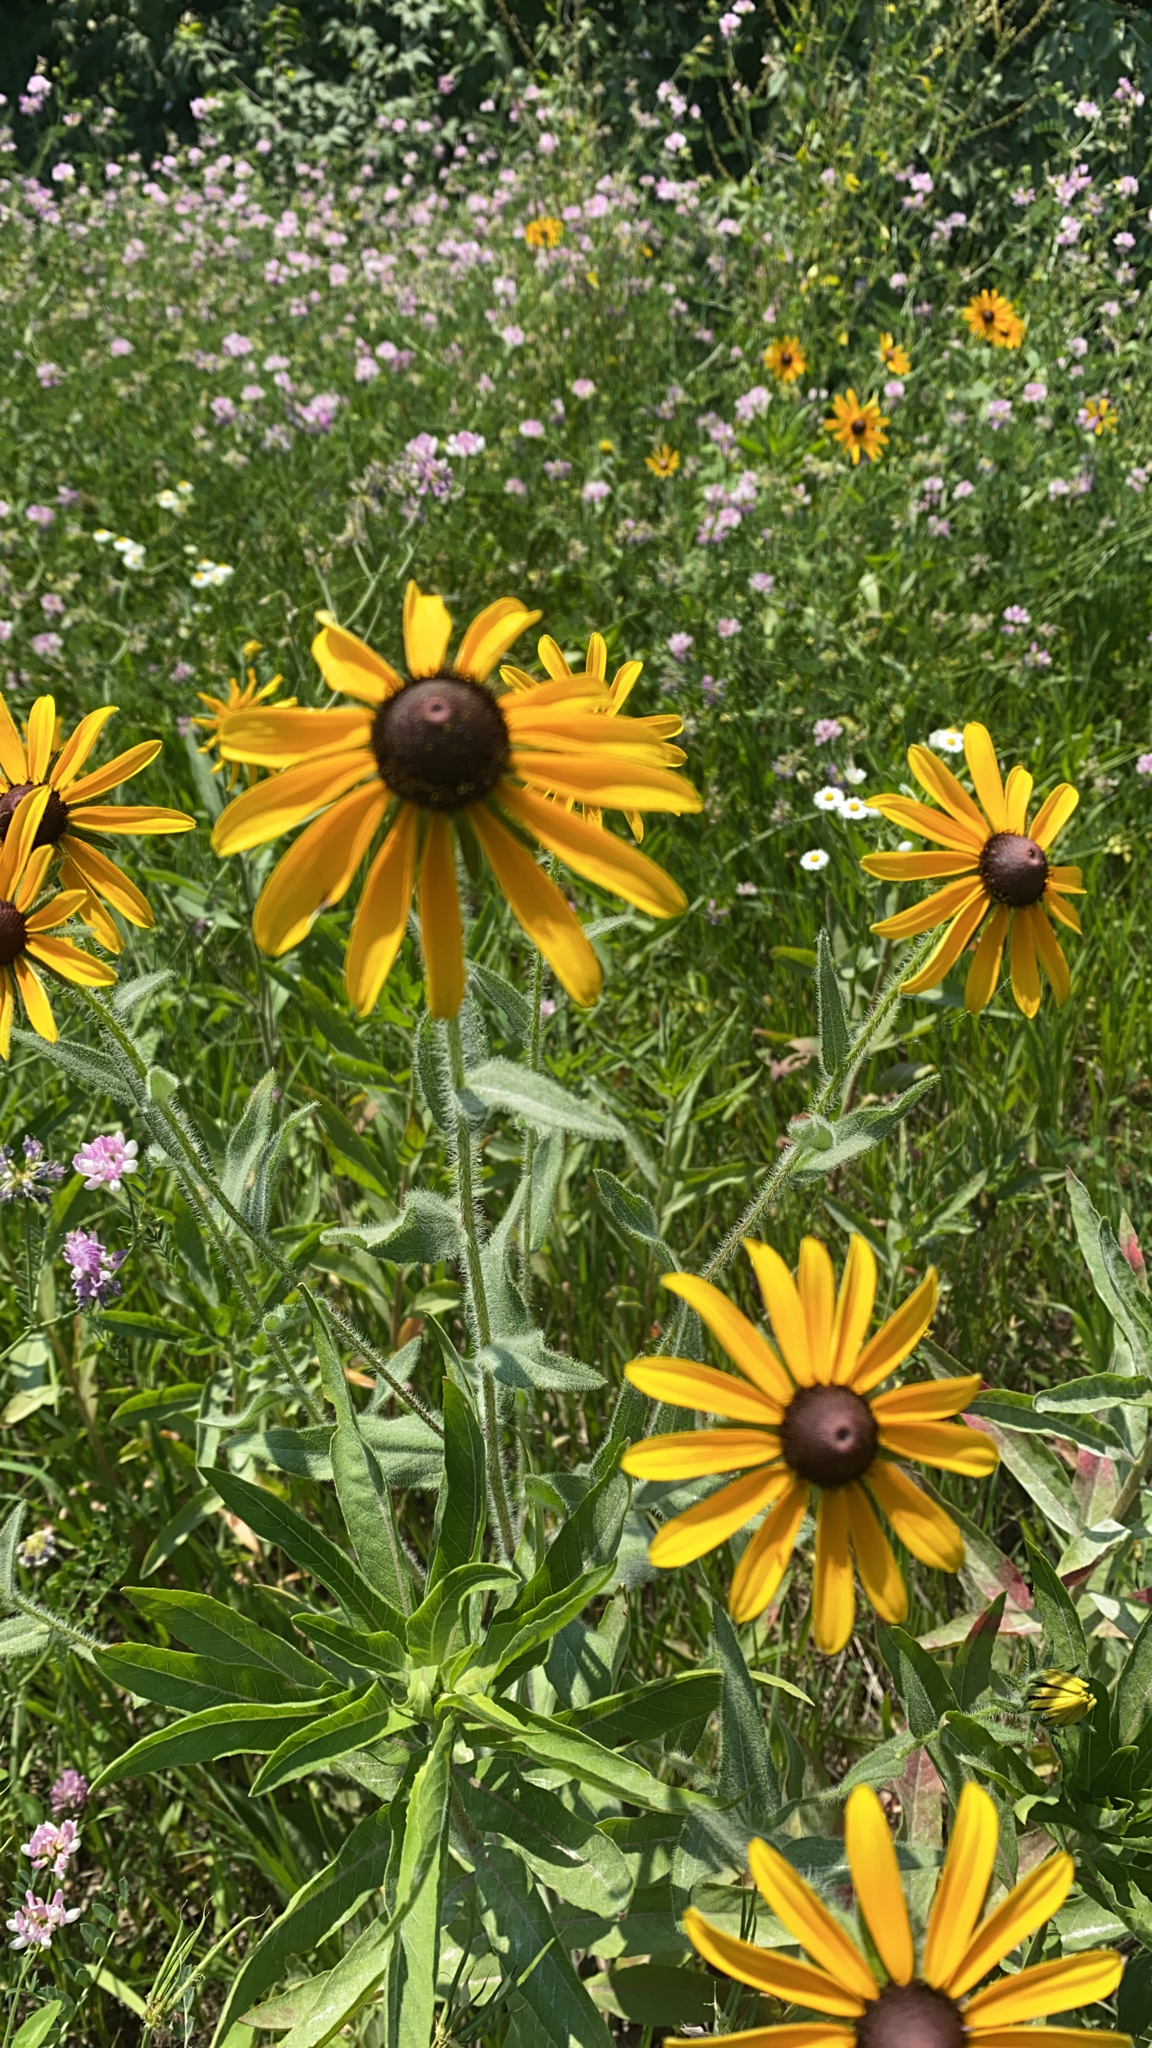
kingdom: Plantae
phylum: Tracheophyta
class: Magnoliopsida
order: Asterales
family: Asteraceae
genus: Rudbeckia
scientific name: Rudbeckia hirta
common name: Black-eyed-susan
